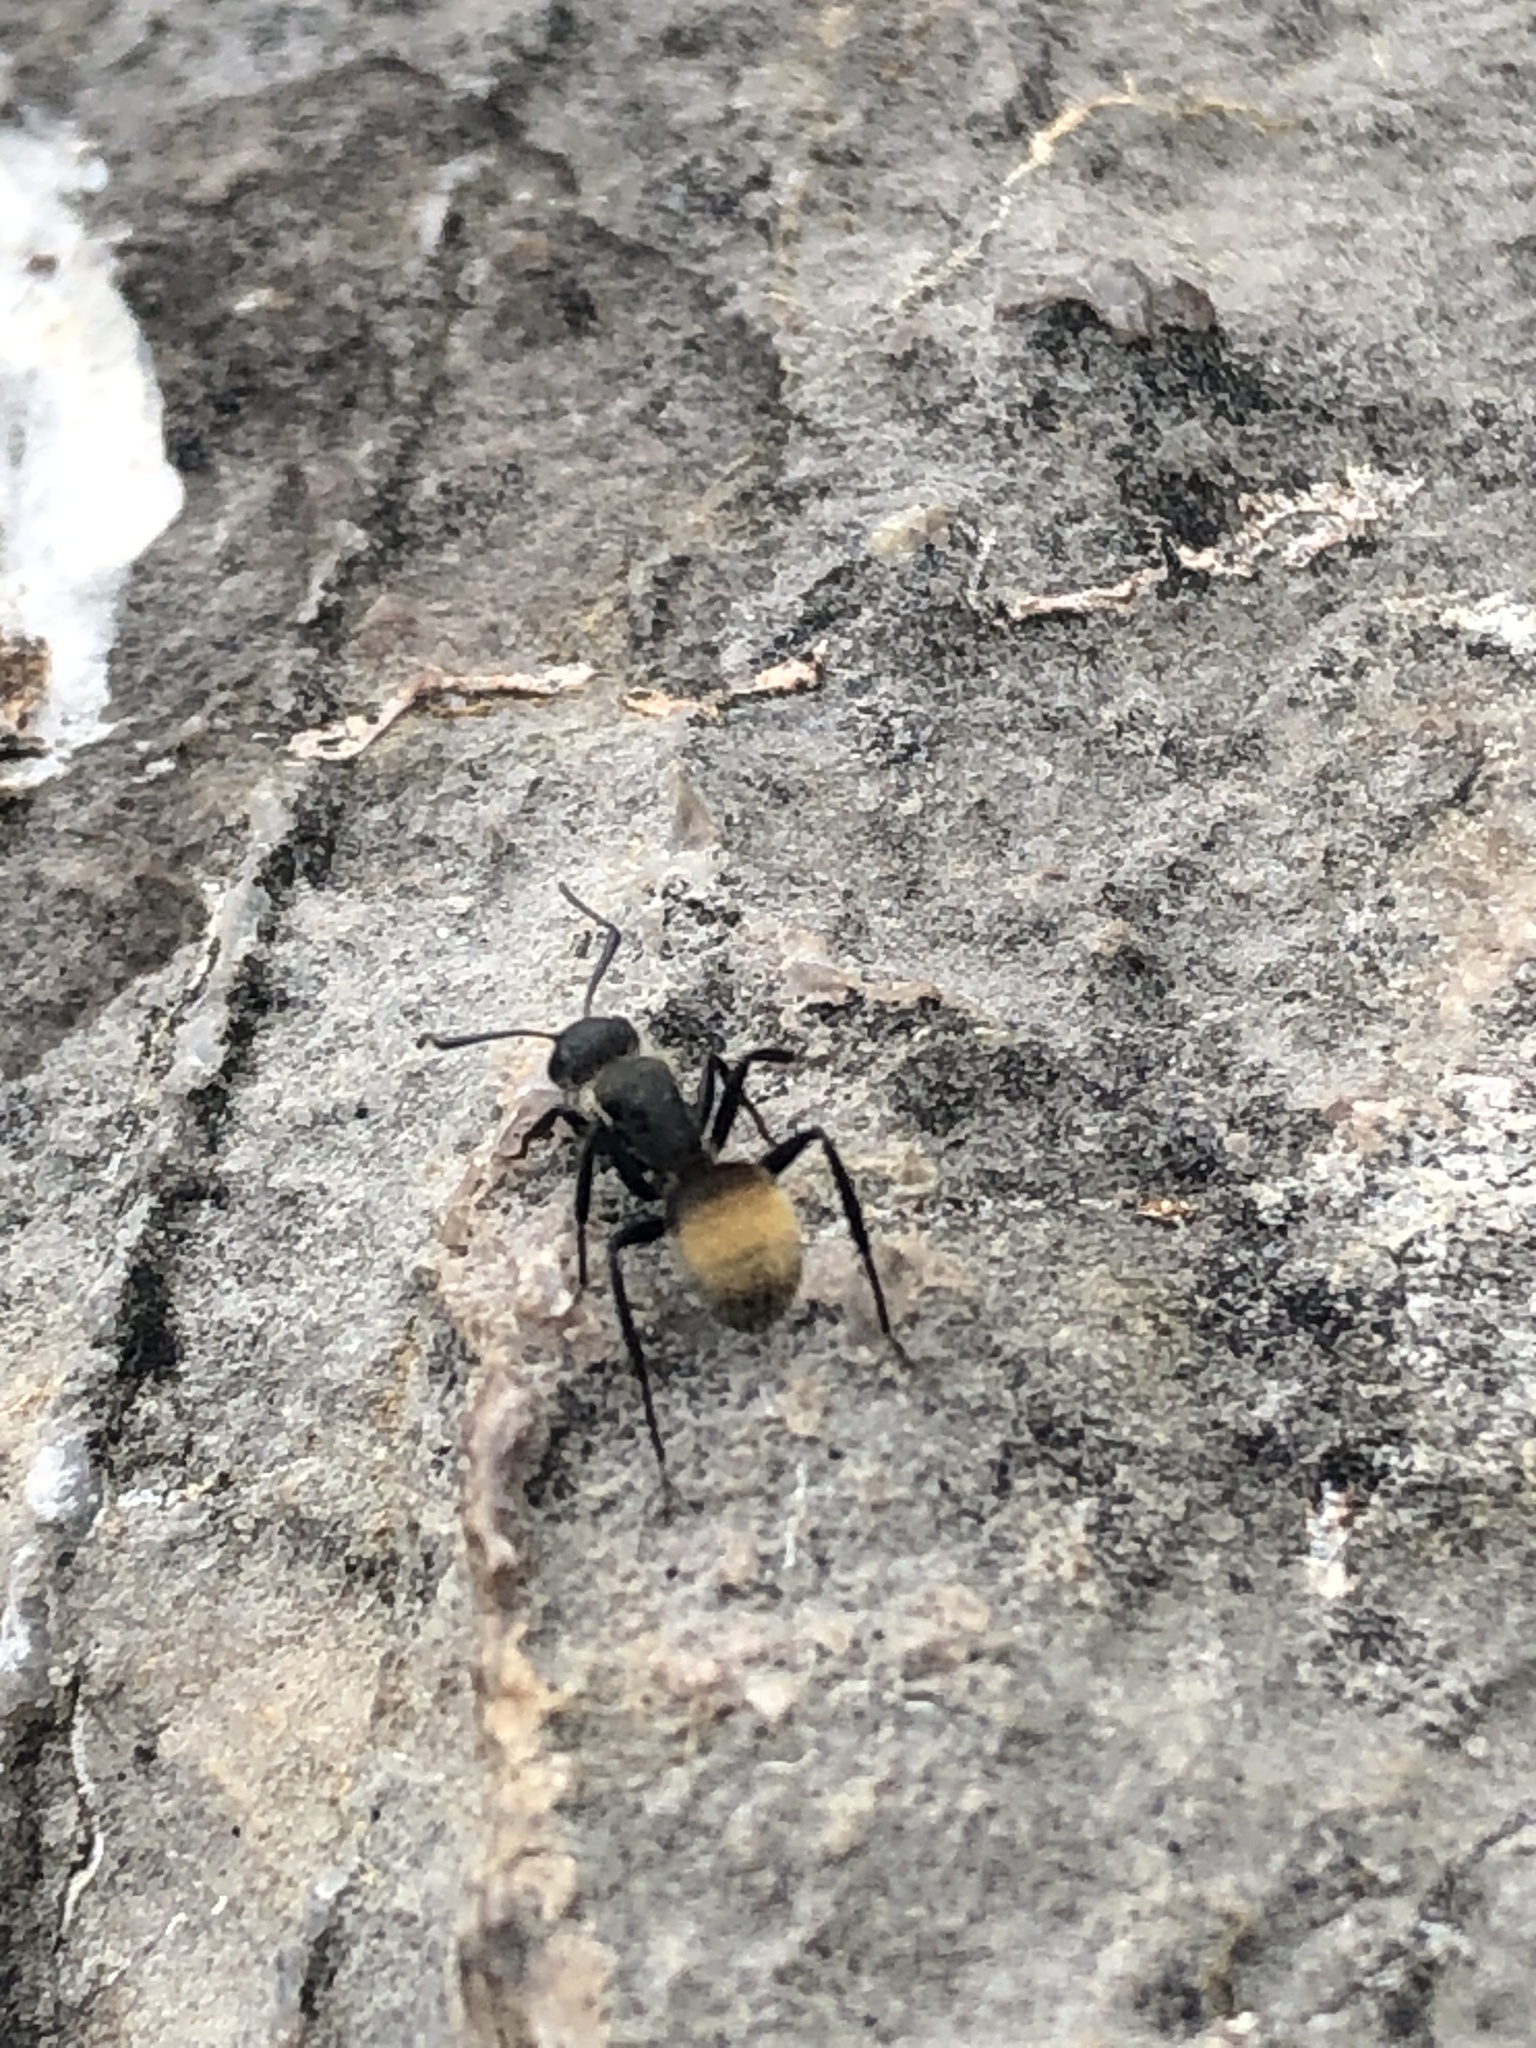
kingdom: Animalia
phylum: Arthropoda
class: Insecta
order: Hymenoptera
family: Formicidae
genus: Camponotus
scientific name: Camponotus mus
